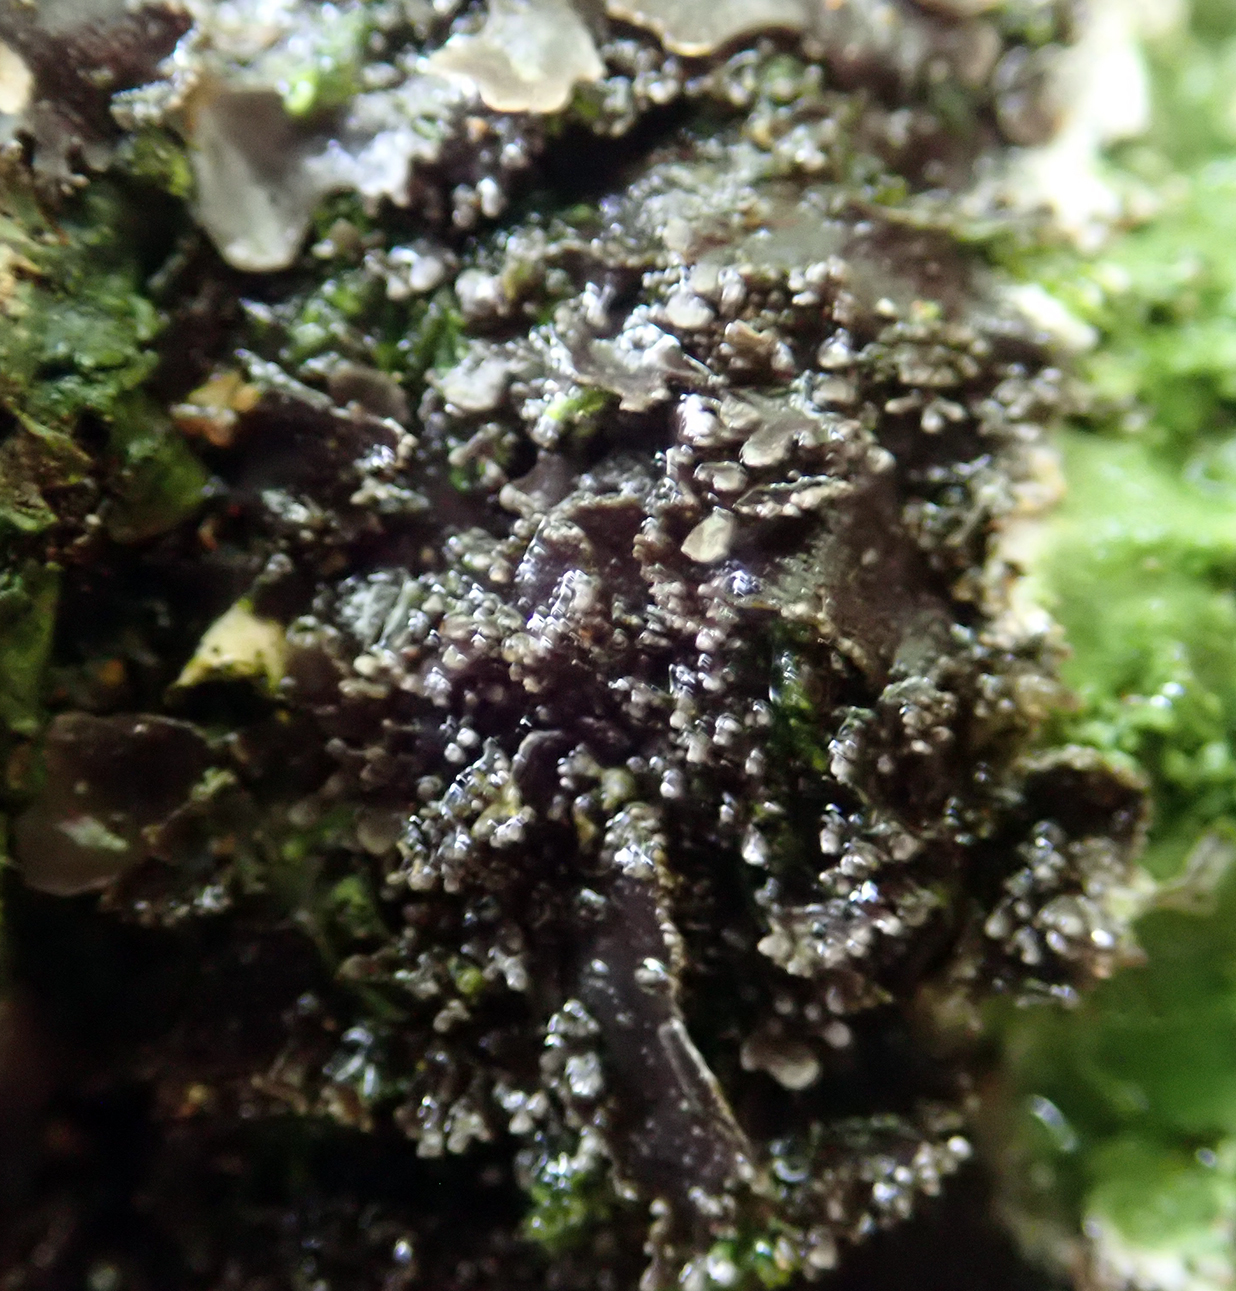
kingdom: Fungi
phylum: Ascomycota
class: Lecanoromycetes
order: Peltigerales
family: Lobariaceae
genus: Pseudocyphellaria
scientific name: Pseudocyphellaria dissimilis
